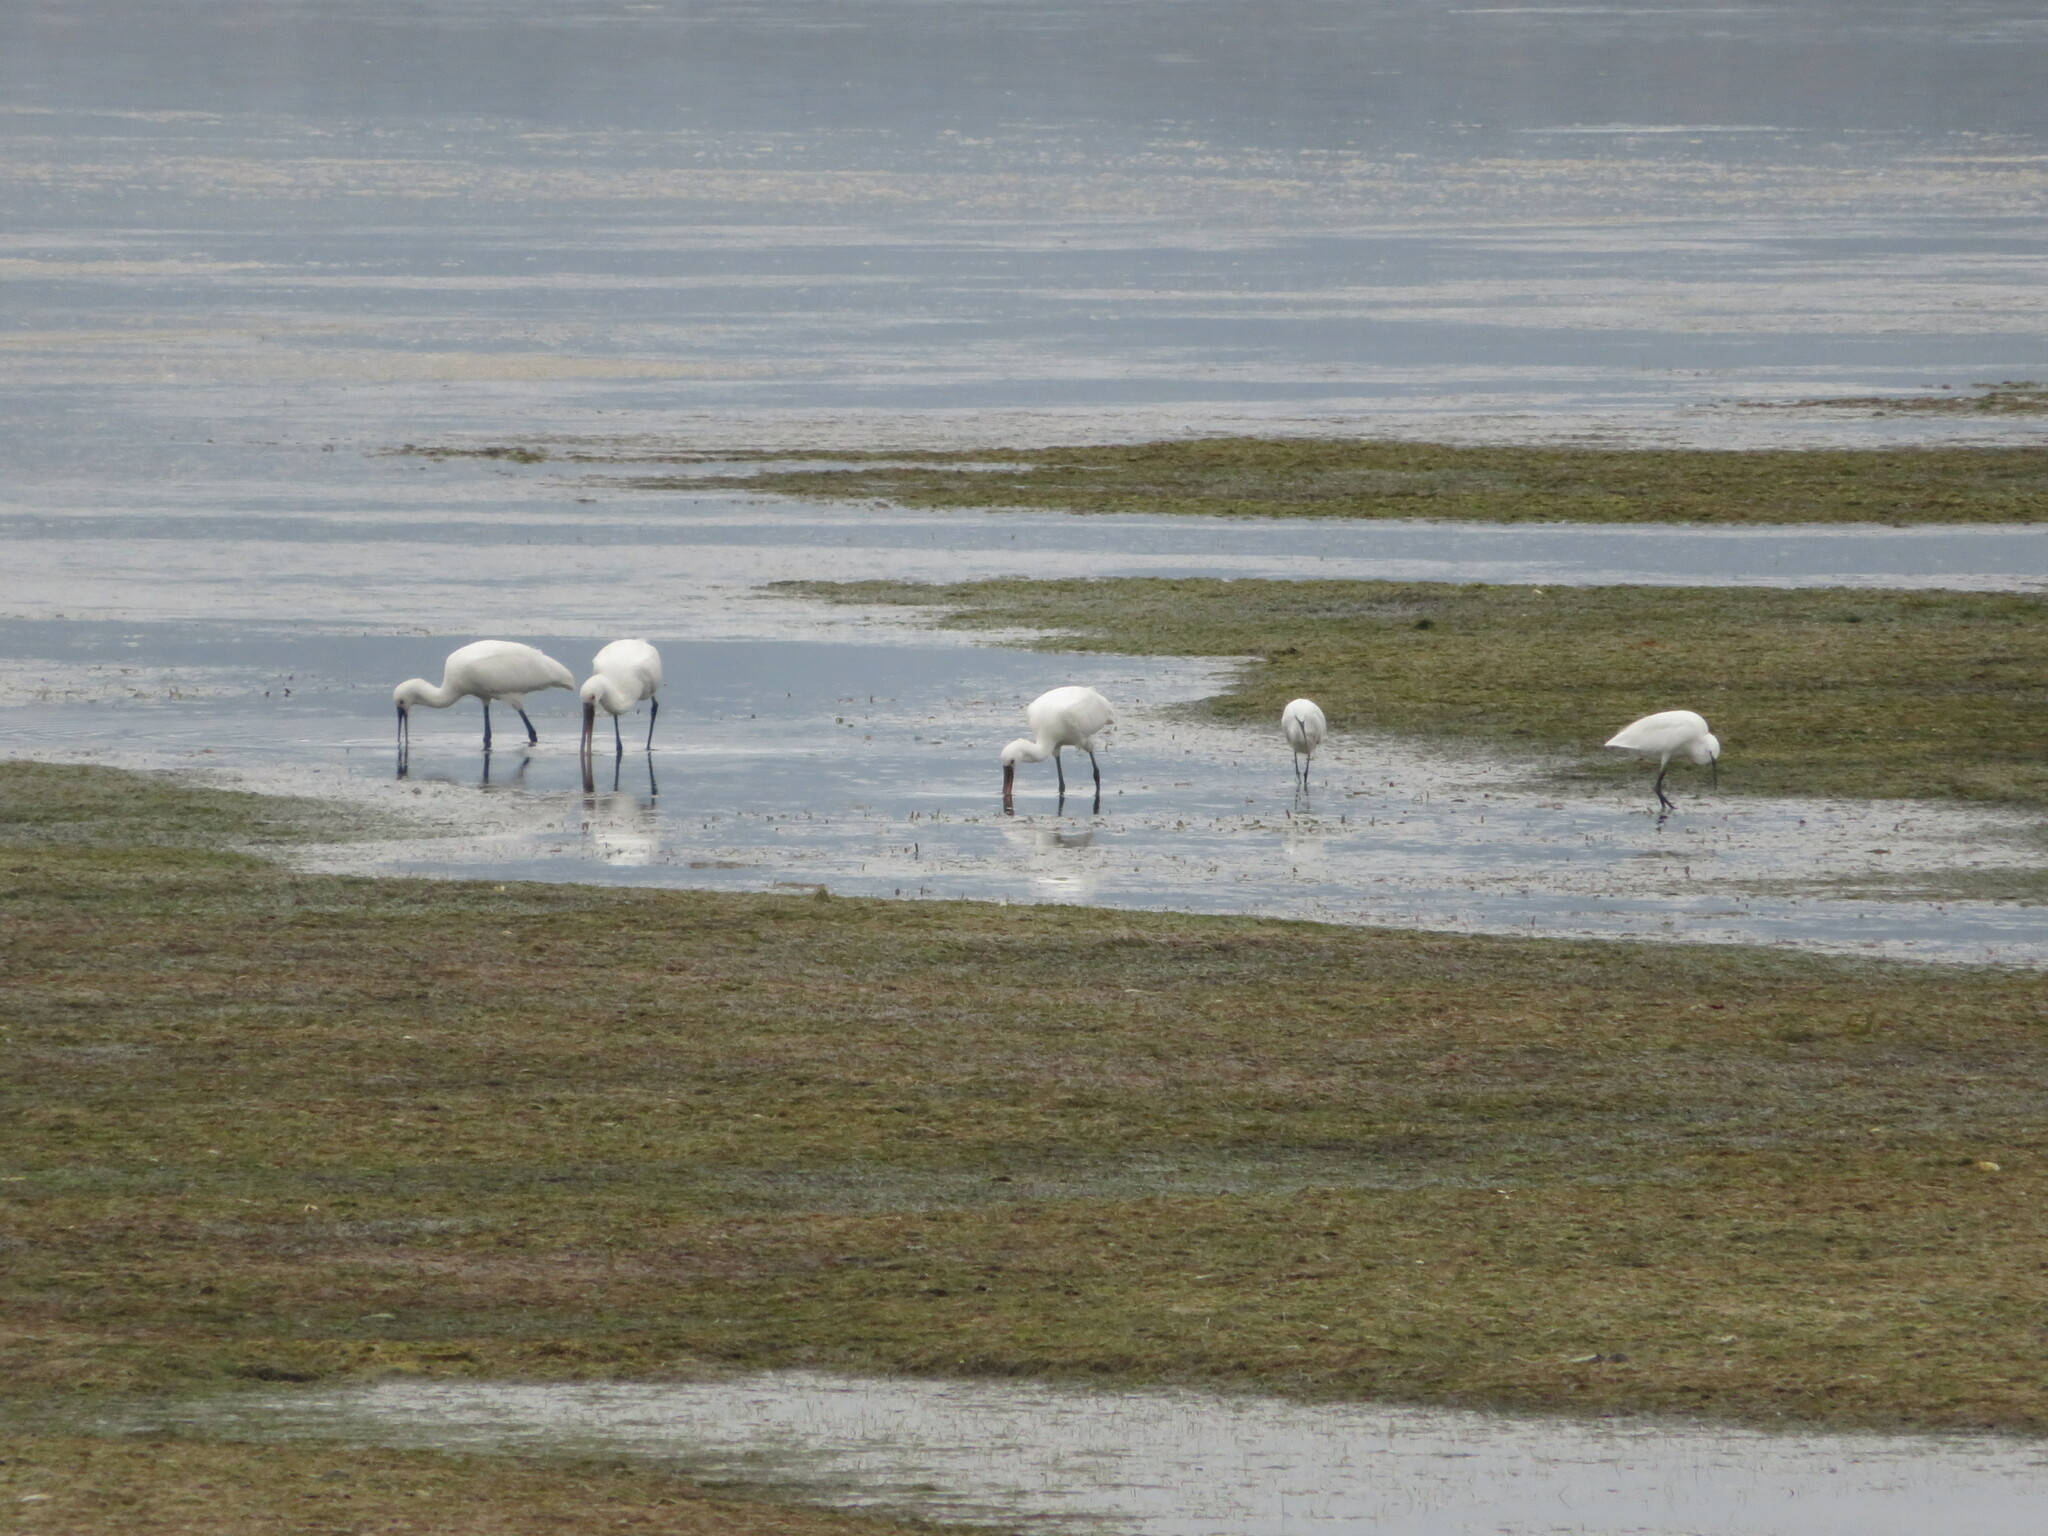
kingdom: Animalia
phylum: Chordata
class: Aves
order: Pelecaniformes
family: Threskiornithidae
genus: Platalea
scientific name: Platalea leucorodia
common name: Eurasian spoonbill
